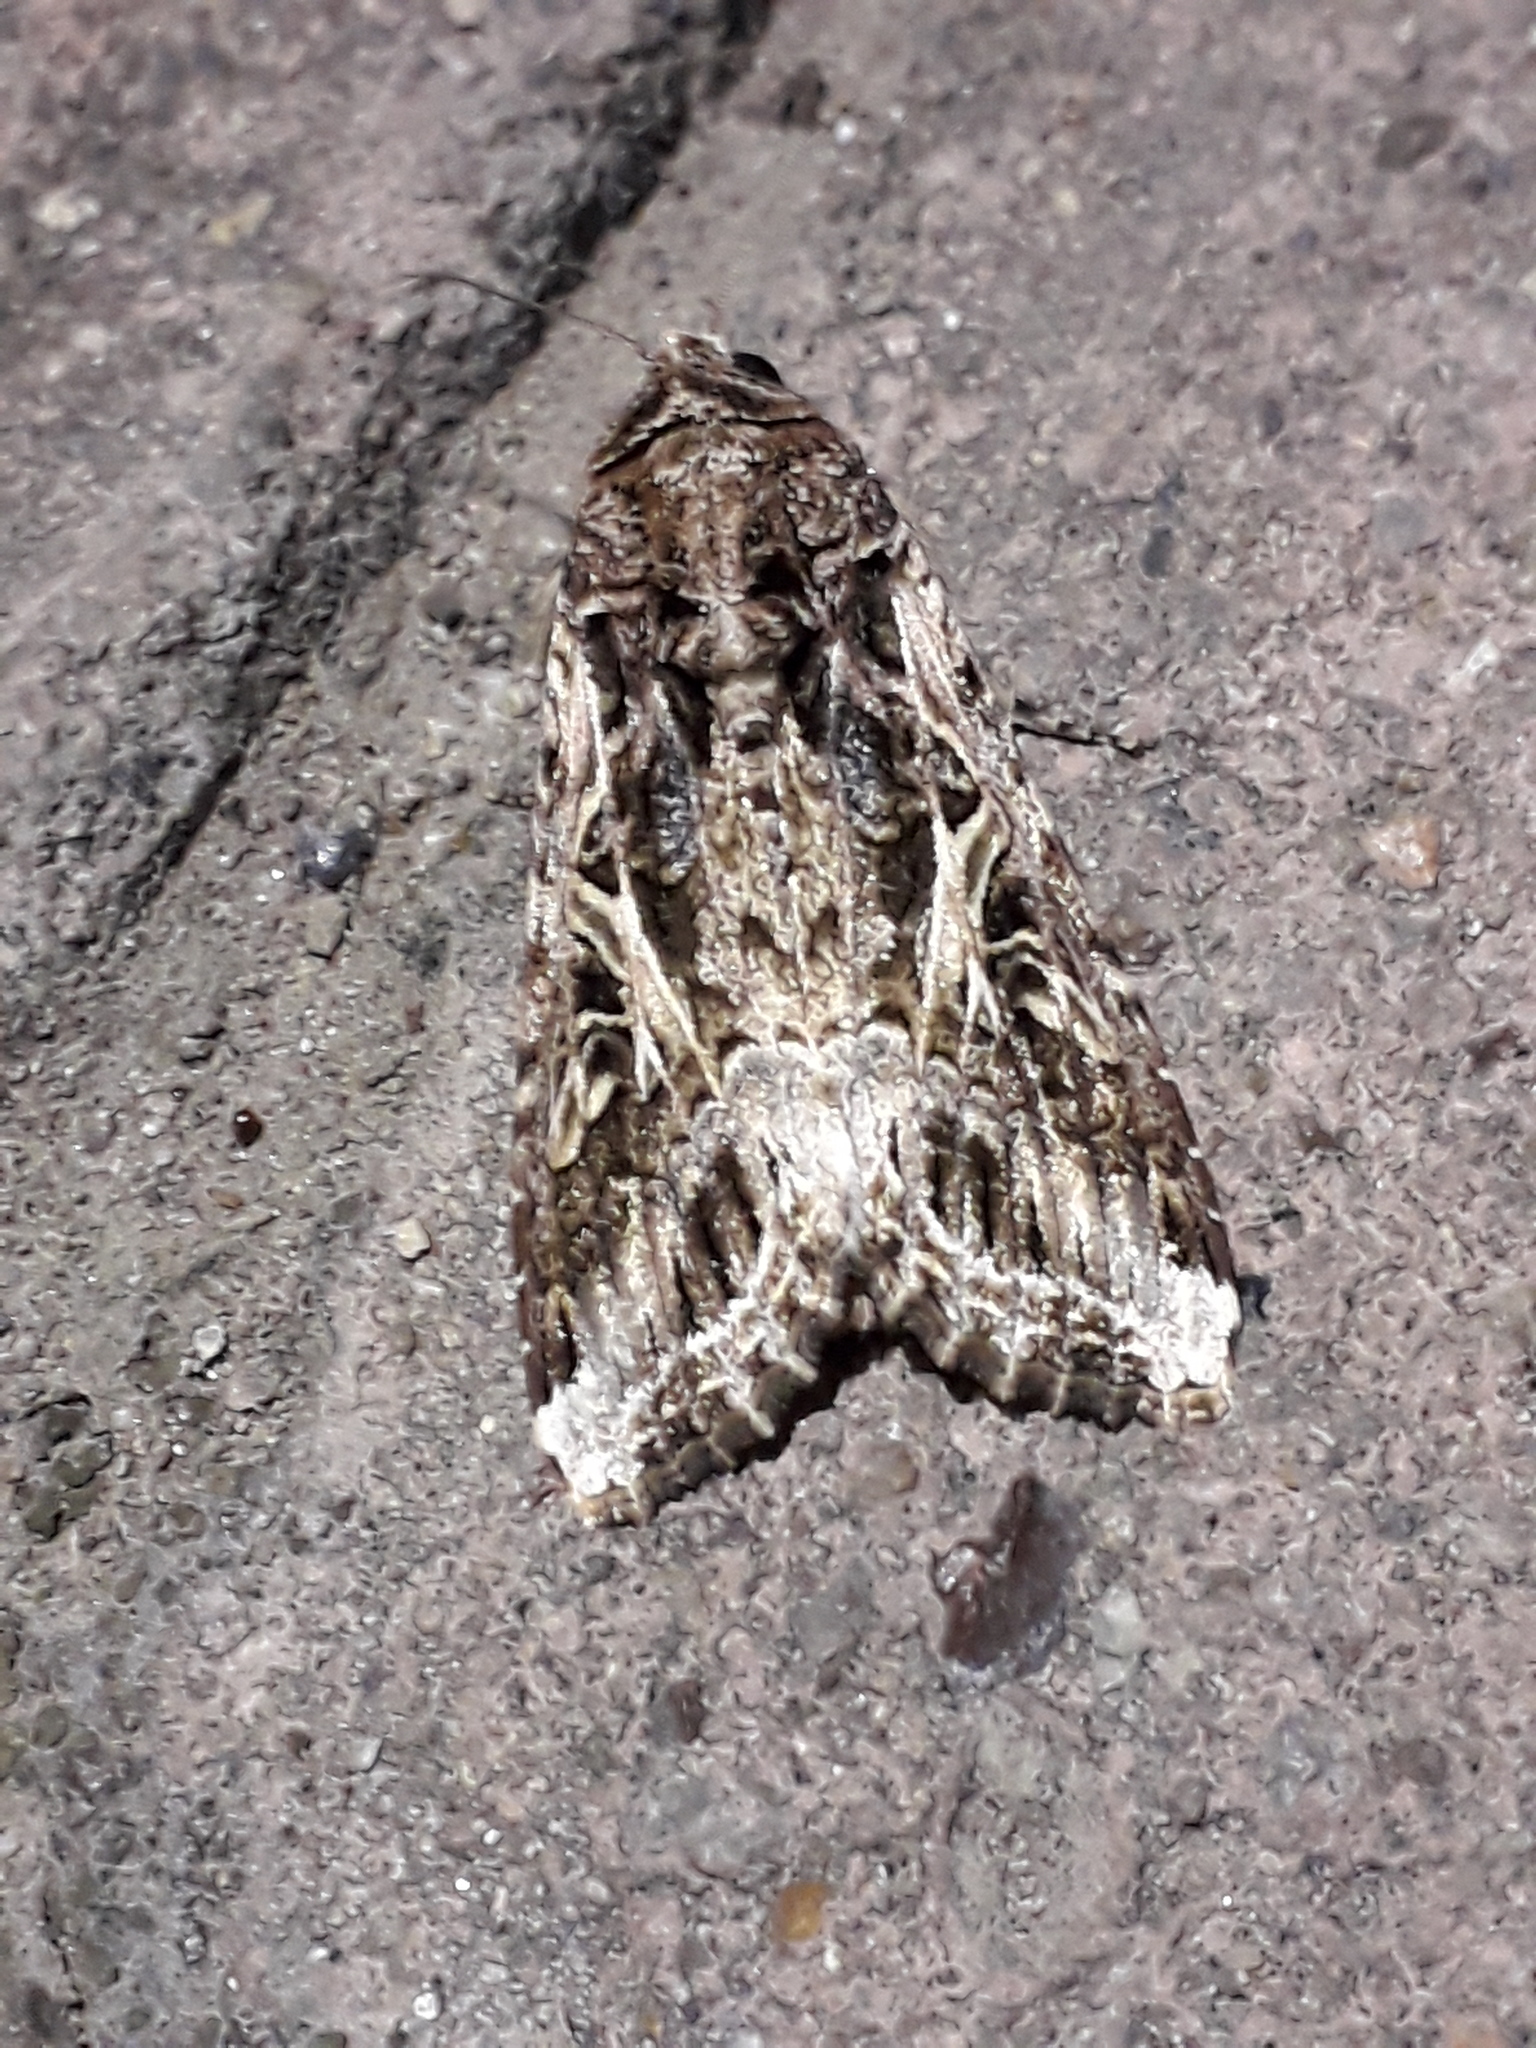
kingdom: Animalia
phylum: Arthropoda
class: Insecta
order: Lepidoptera
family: Noctuidae
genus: Spodoptera
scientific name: Spodoptera ornithogalli
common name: Yellow-striped armyworm
